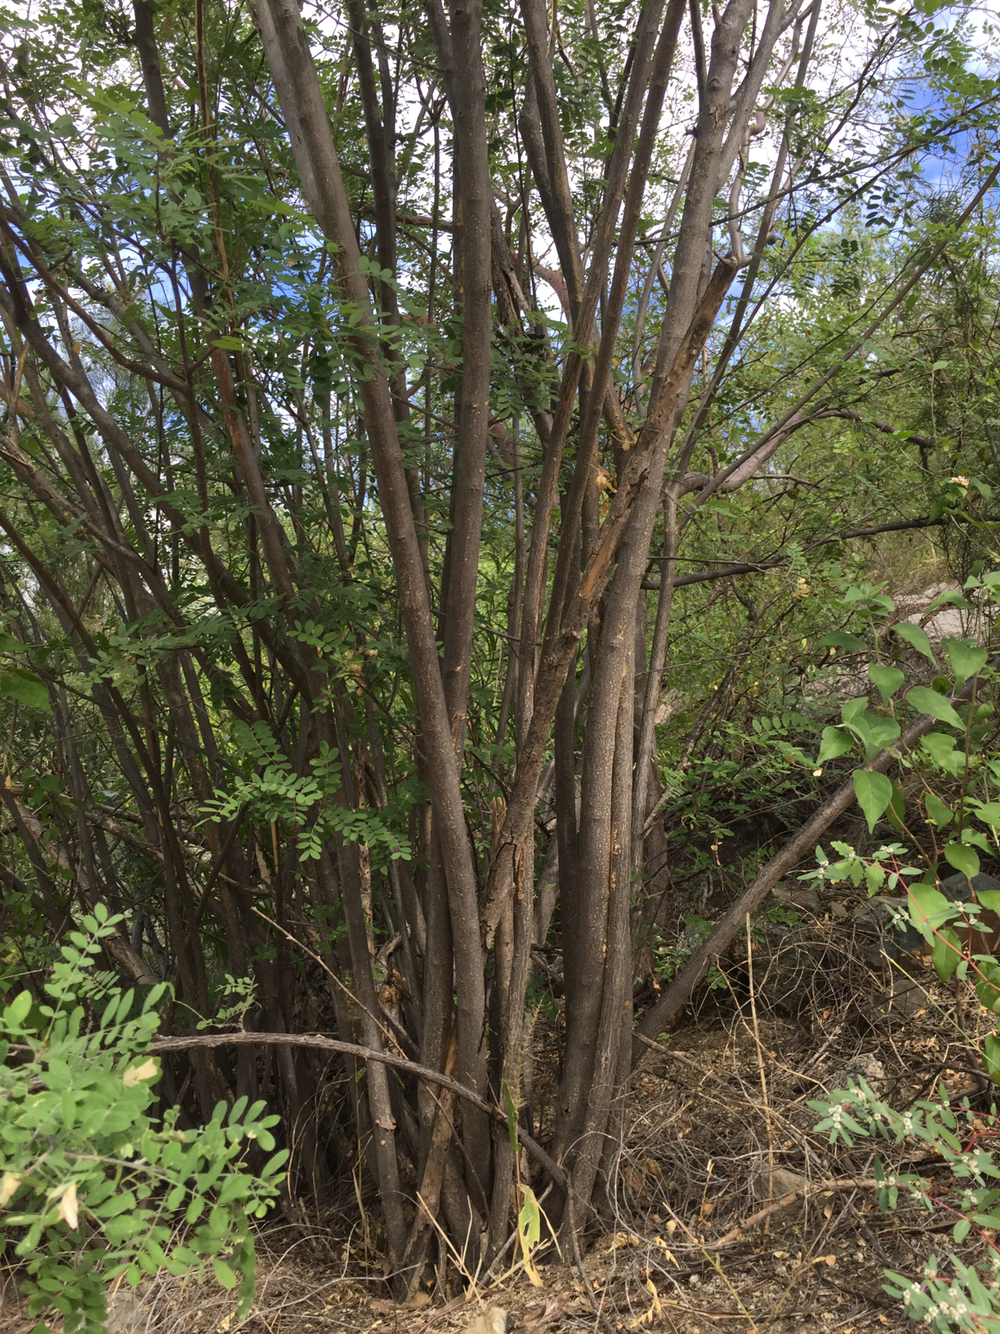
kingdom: Plantae
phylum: Tracheophyta
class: Magnoliopsida
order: Fabales
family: Fabaceae
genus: Coursetia
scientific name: Coursetia glandulosa
